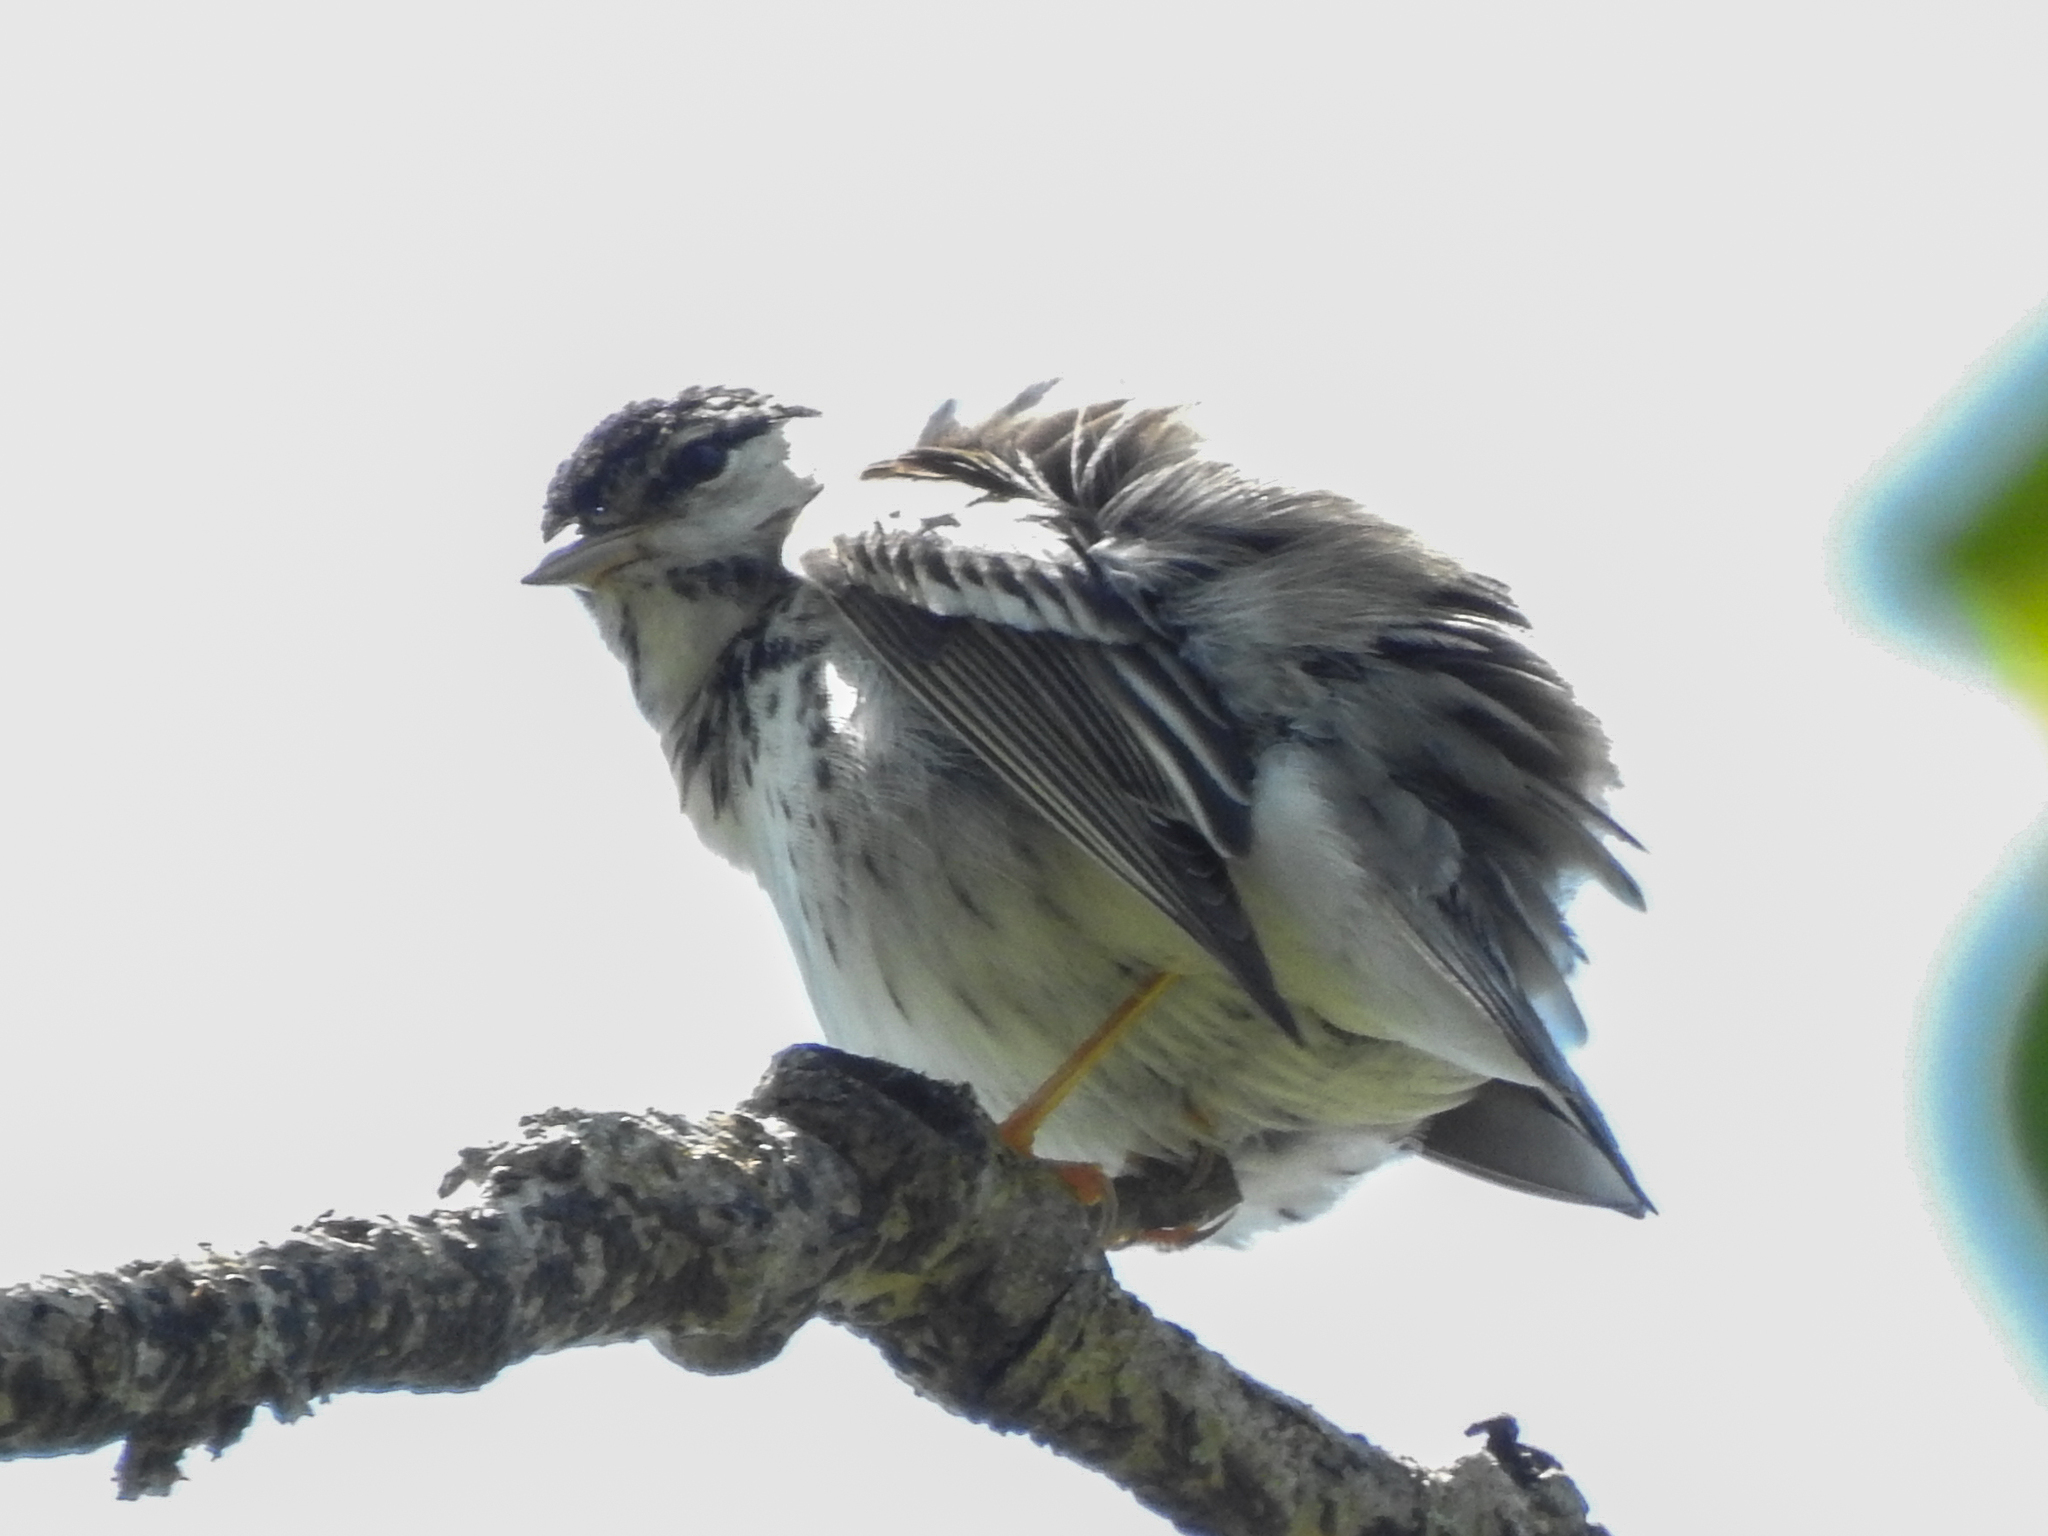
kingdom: Animalia
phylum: Chordata
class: Aves
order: Passeriformes
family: Parulidae
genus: Setophaga
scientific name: Setophaga striata
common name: Blackpoll warbler
